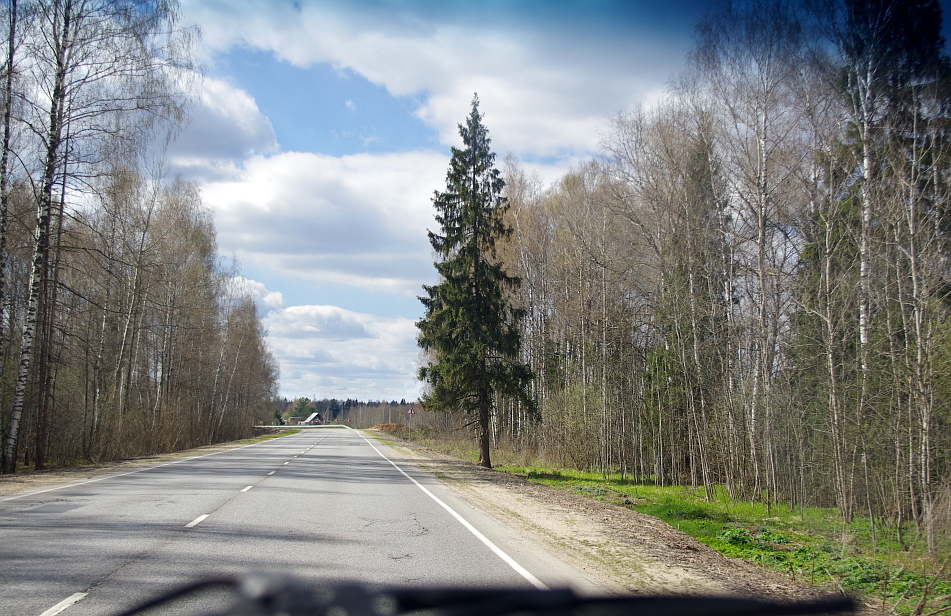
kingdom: Plantae
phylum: Tracheophyta
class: Pinopsida
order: Pinales
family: Pinaceae
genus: Picea
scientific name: Picea abies
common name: Norway spruce
